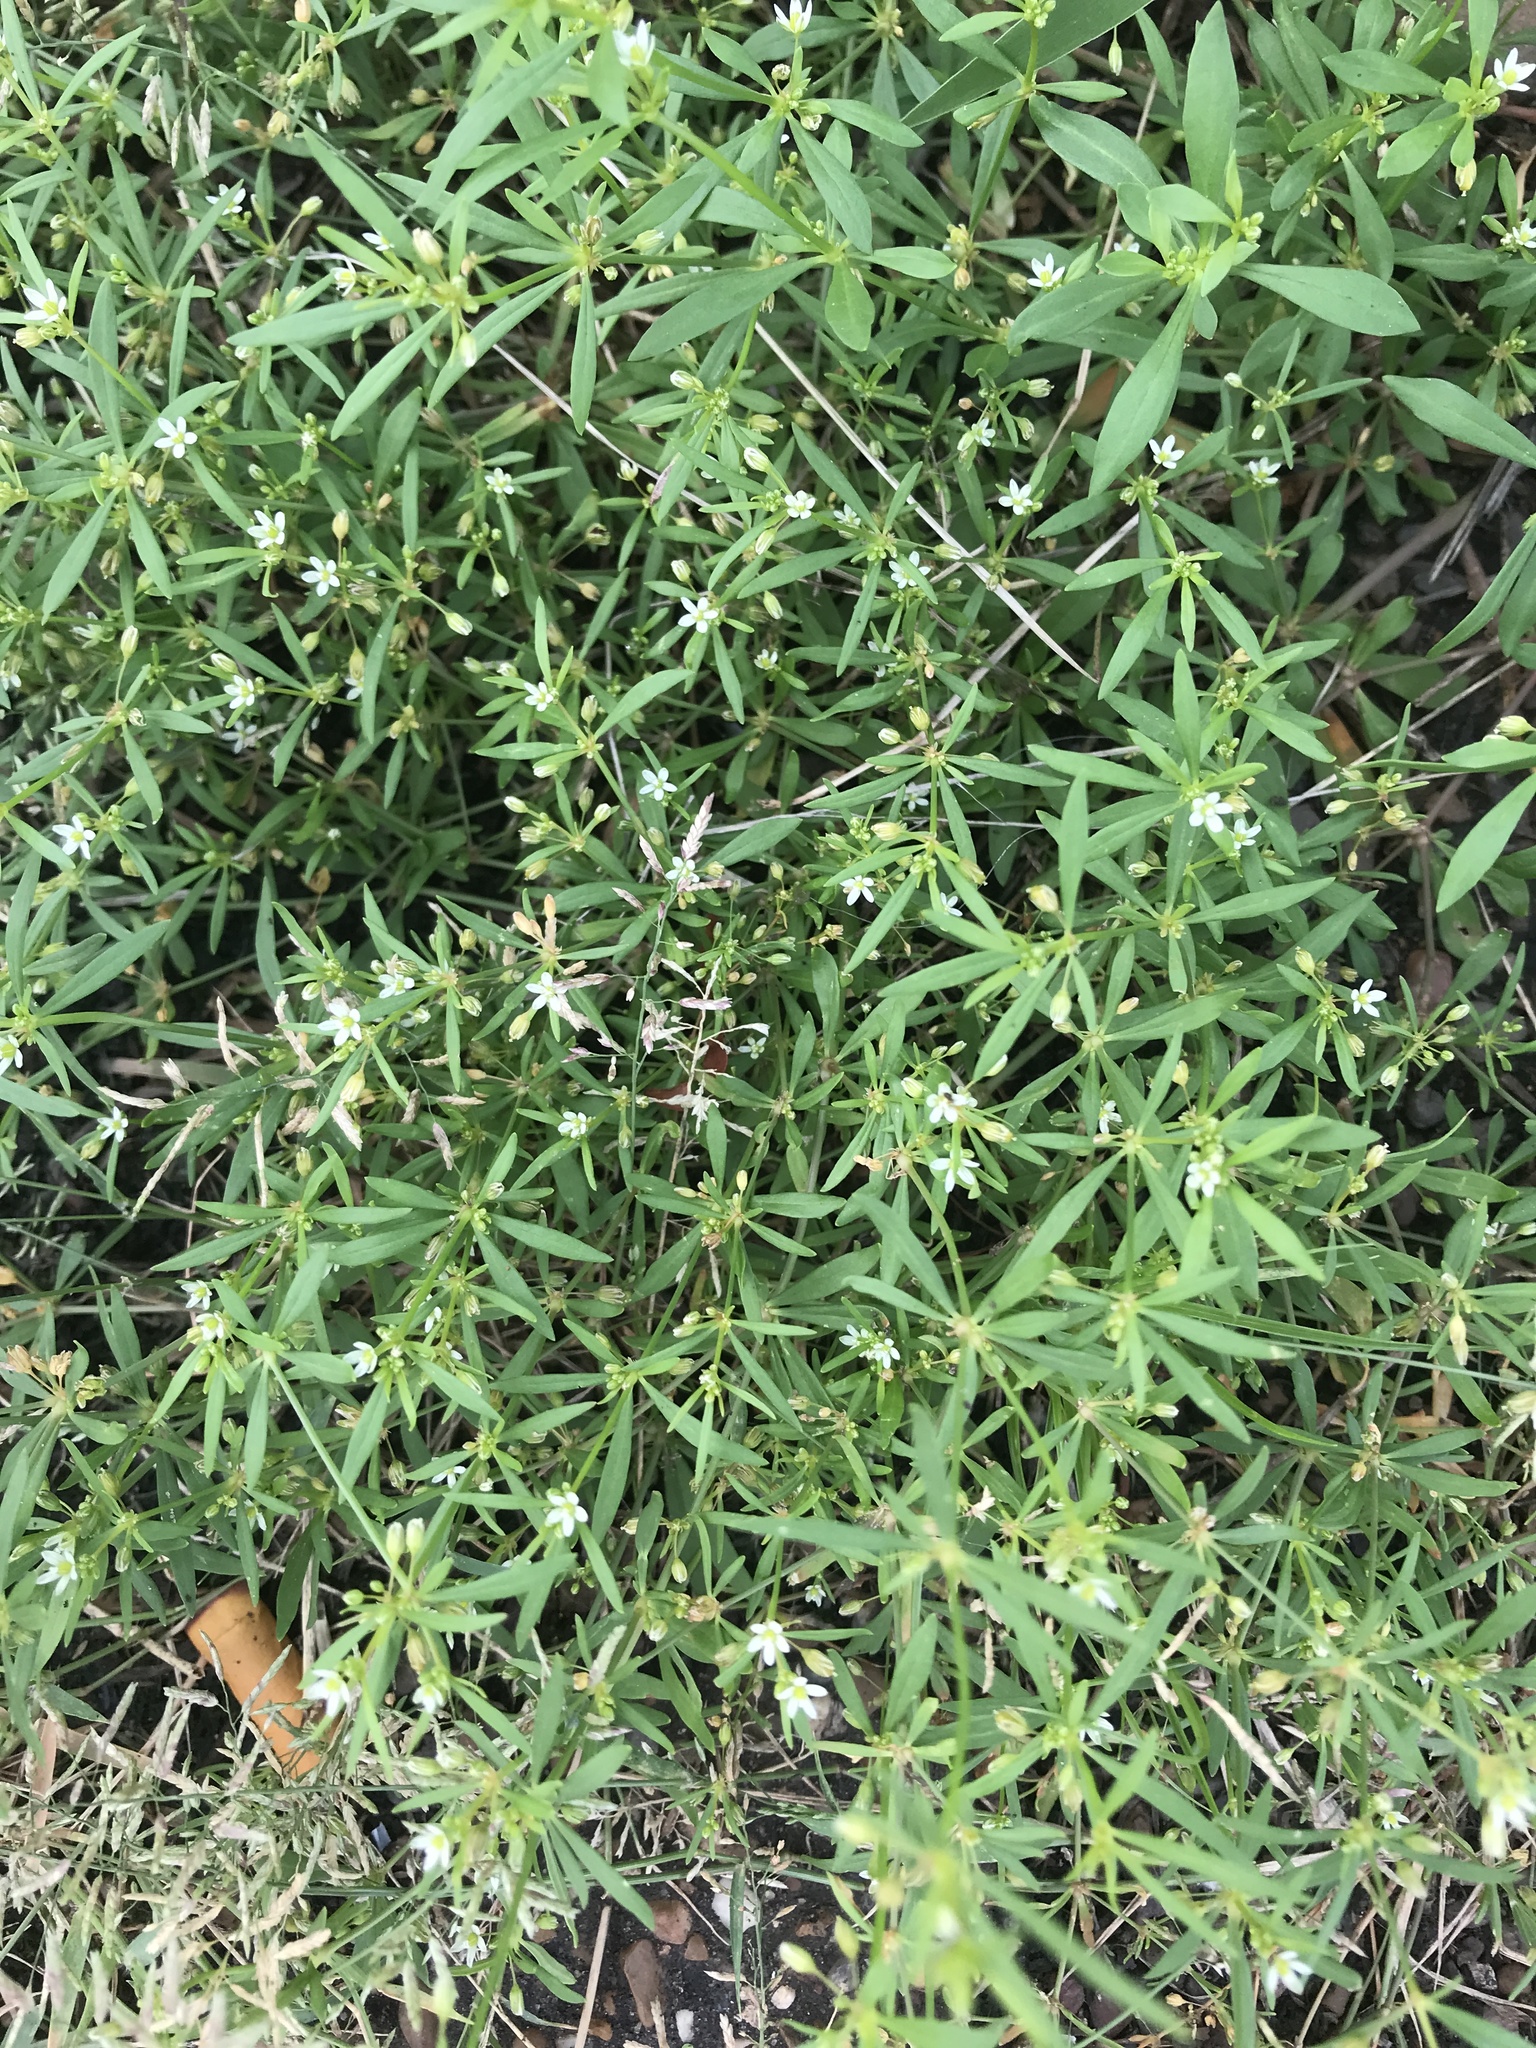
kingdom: Plantae
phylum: Tracheophyta
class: Magnoliopsida
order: Caryophyllales
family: Molluginaceae
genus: Mollugo
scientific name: Mollugo verticillata
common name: Green carpetweed
